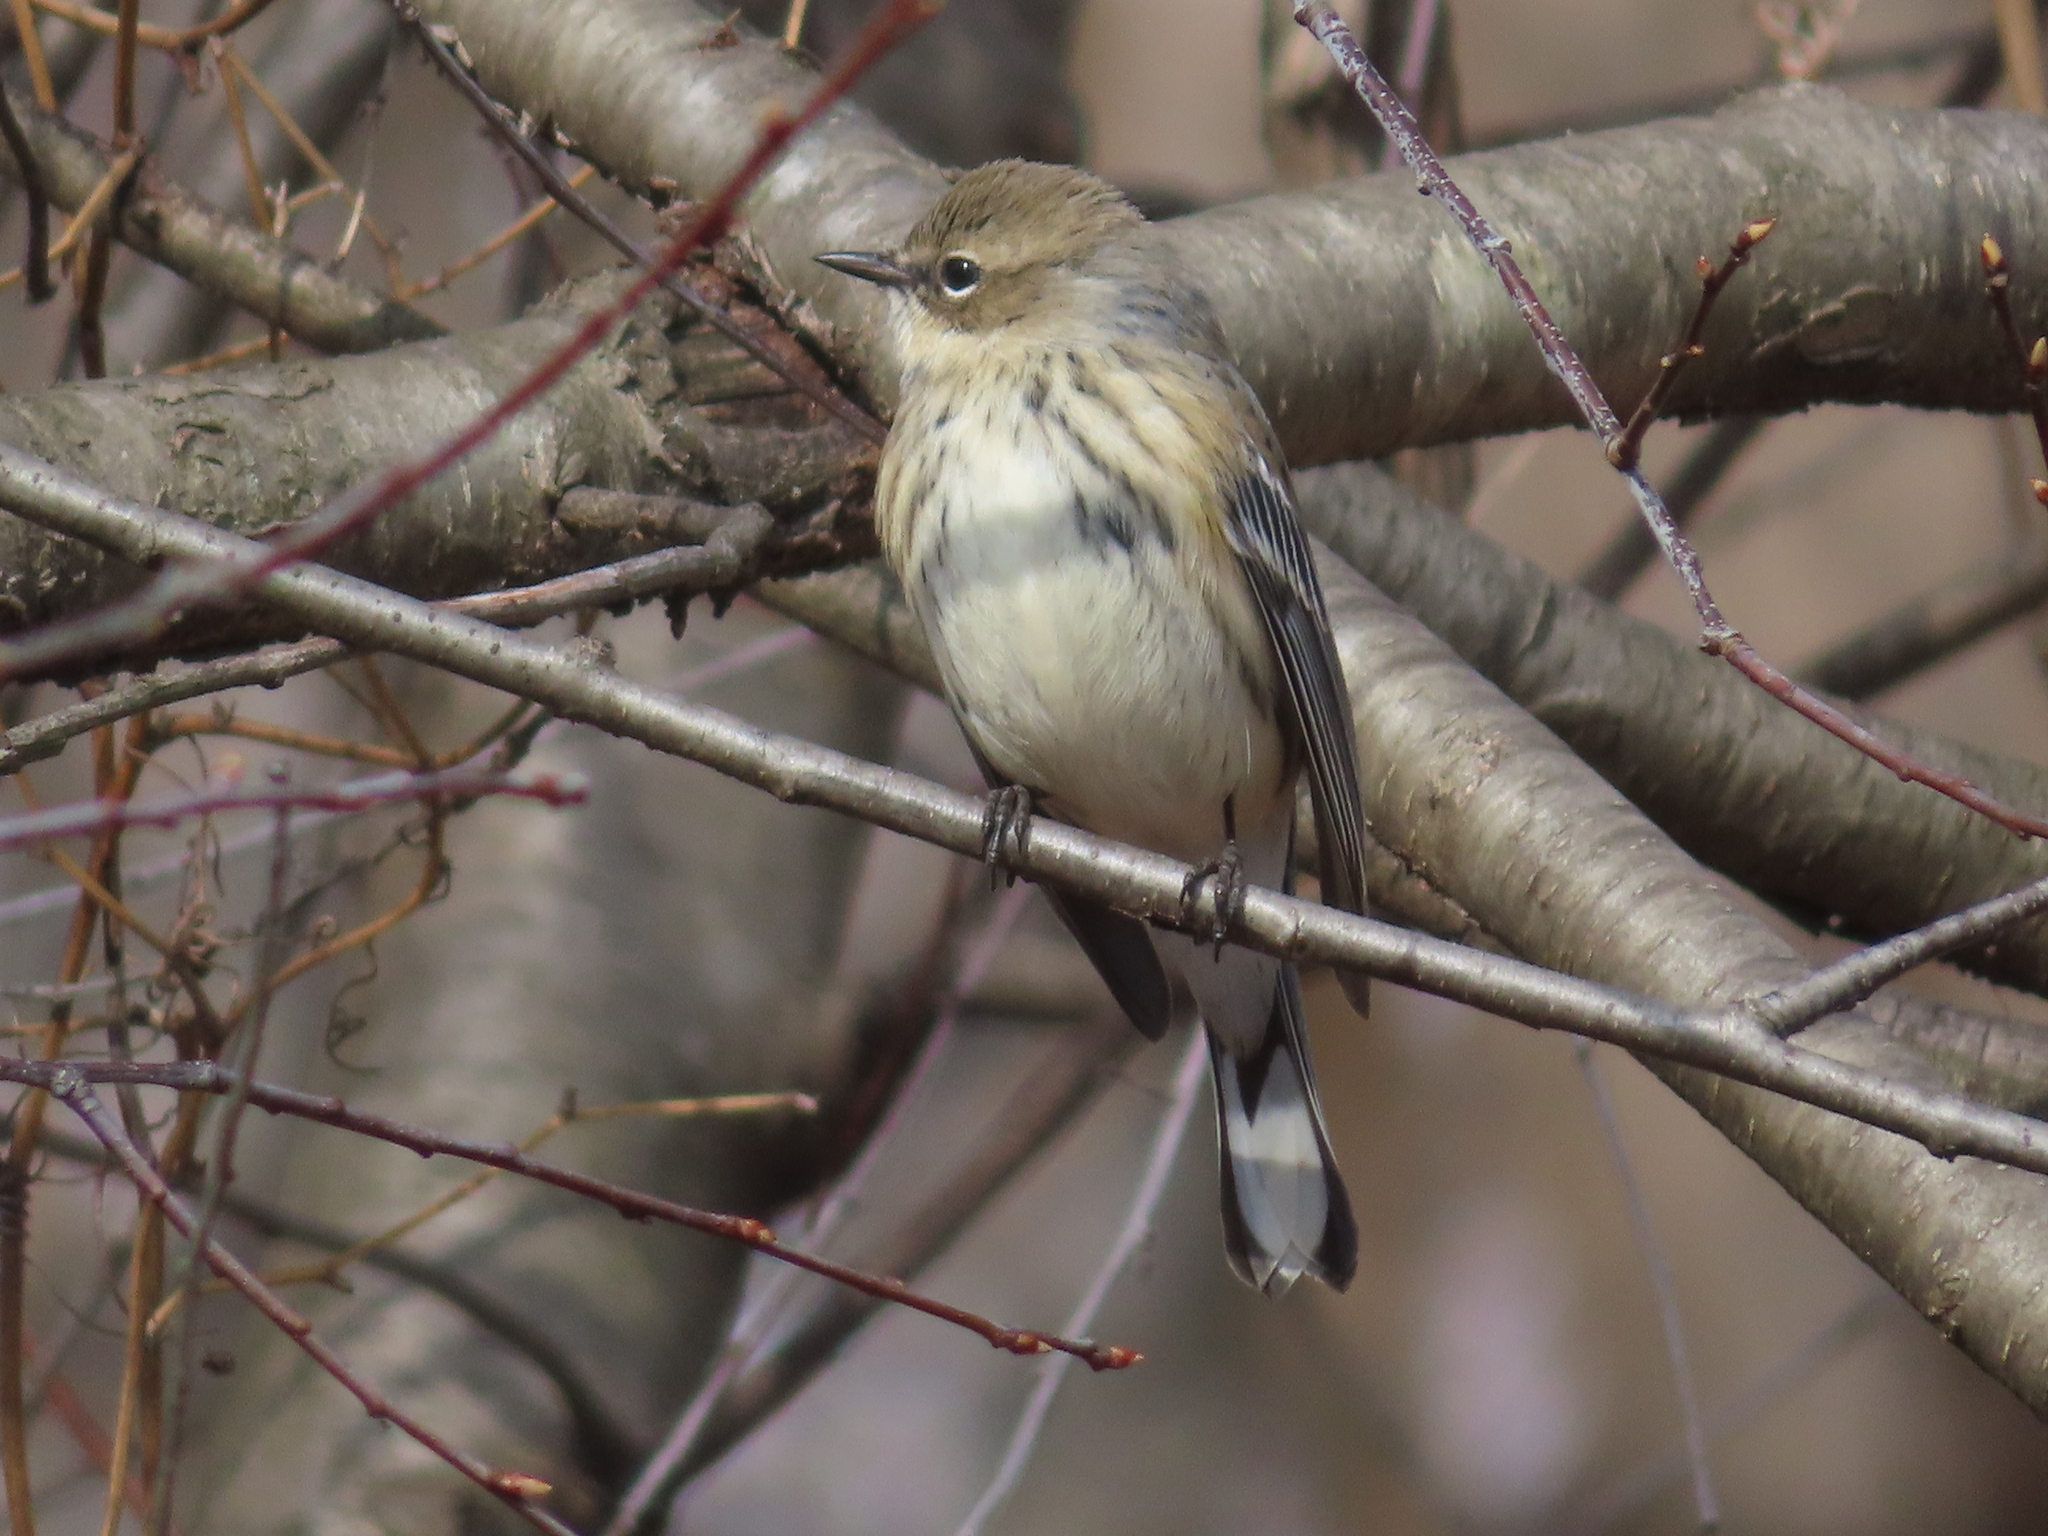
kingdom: Animalia
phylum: Chordata
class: Aves
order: Passeriformes
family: Parulidae
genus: Setophaga
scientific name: Setophaga coronata
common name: Myrtle warbler
